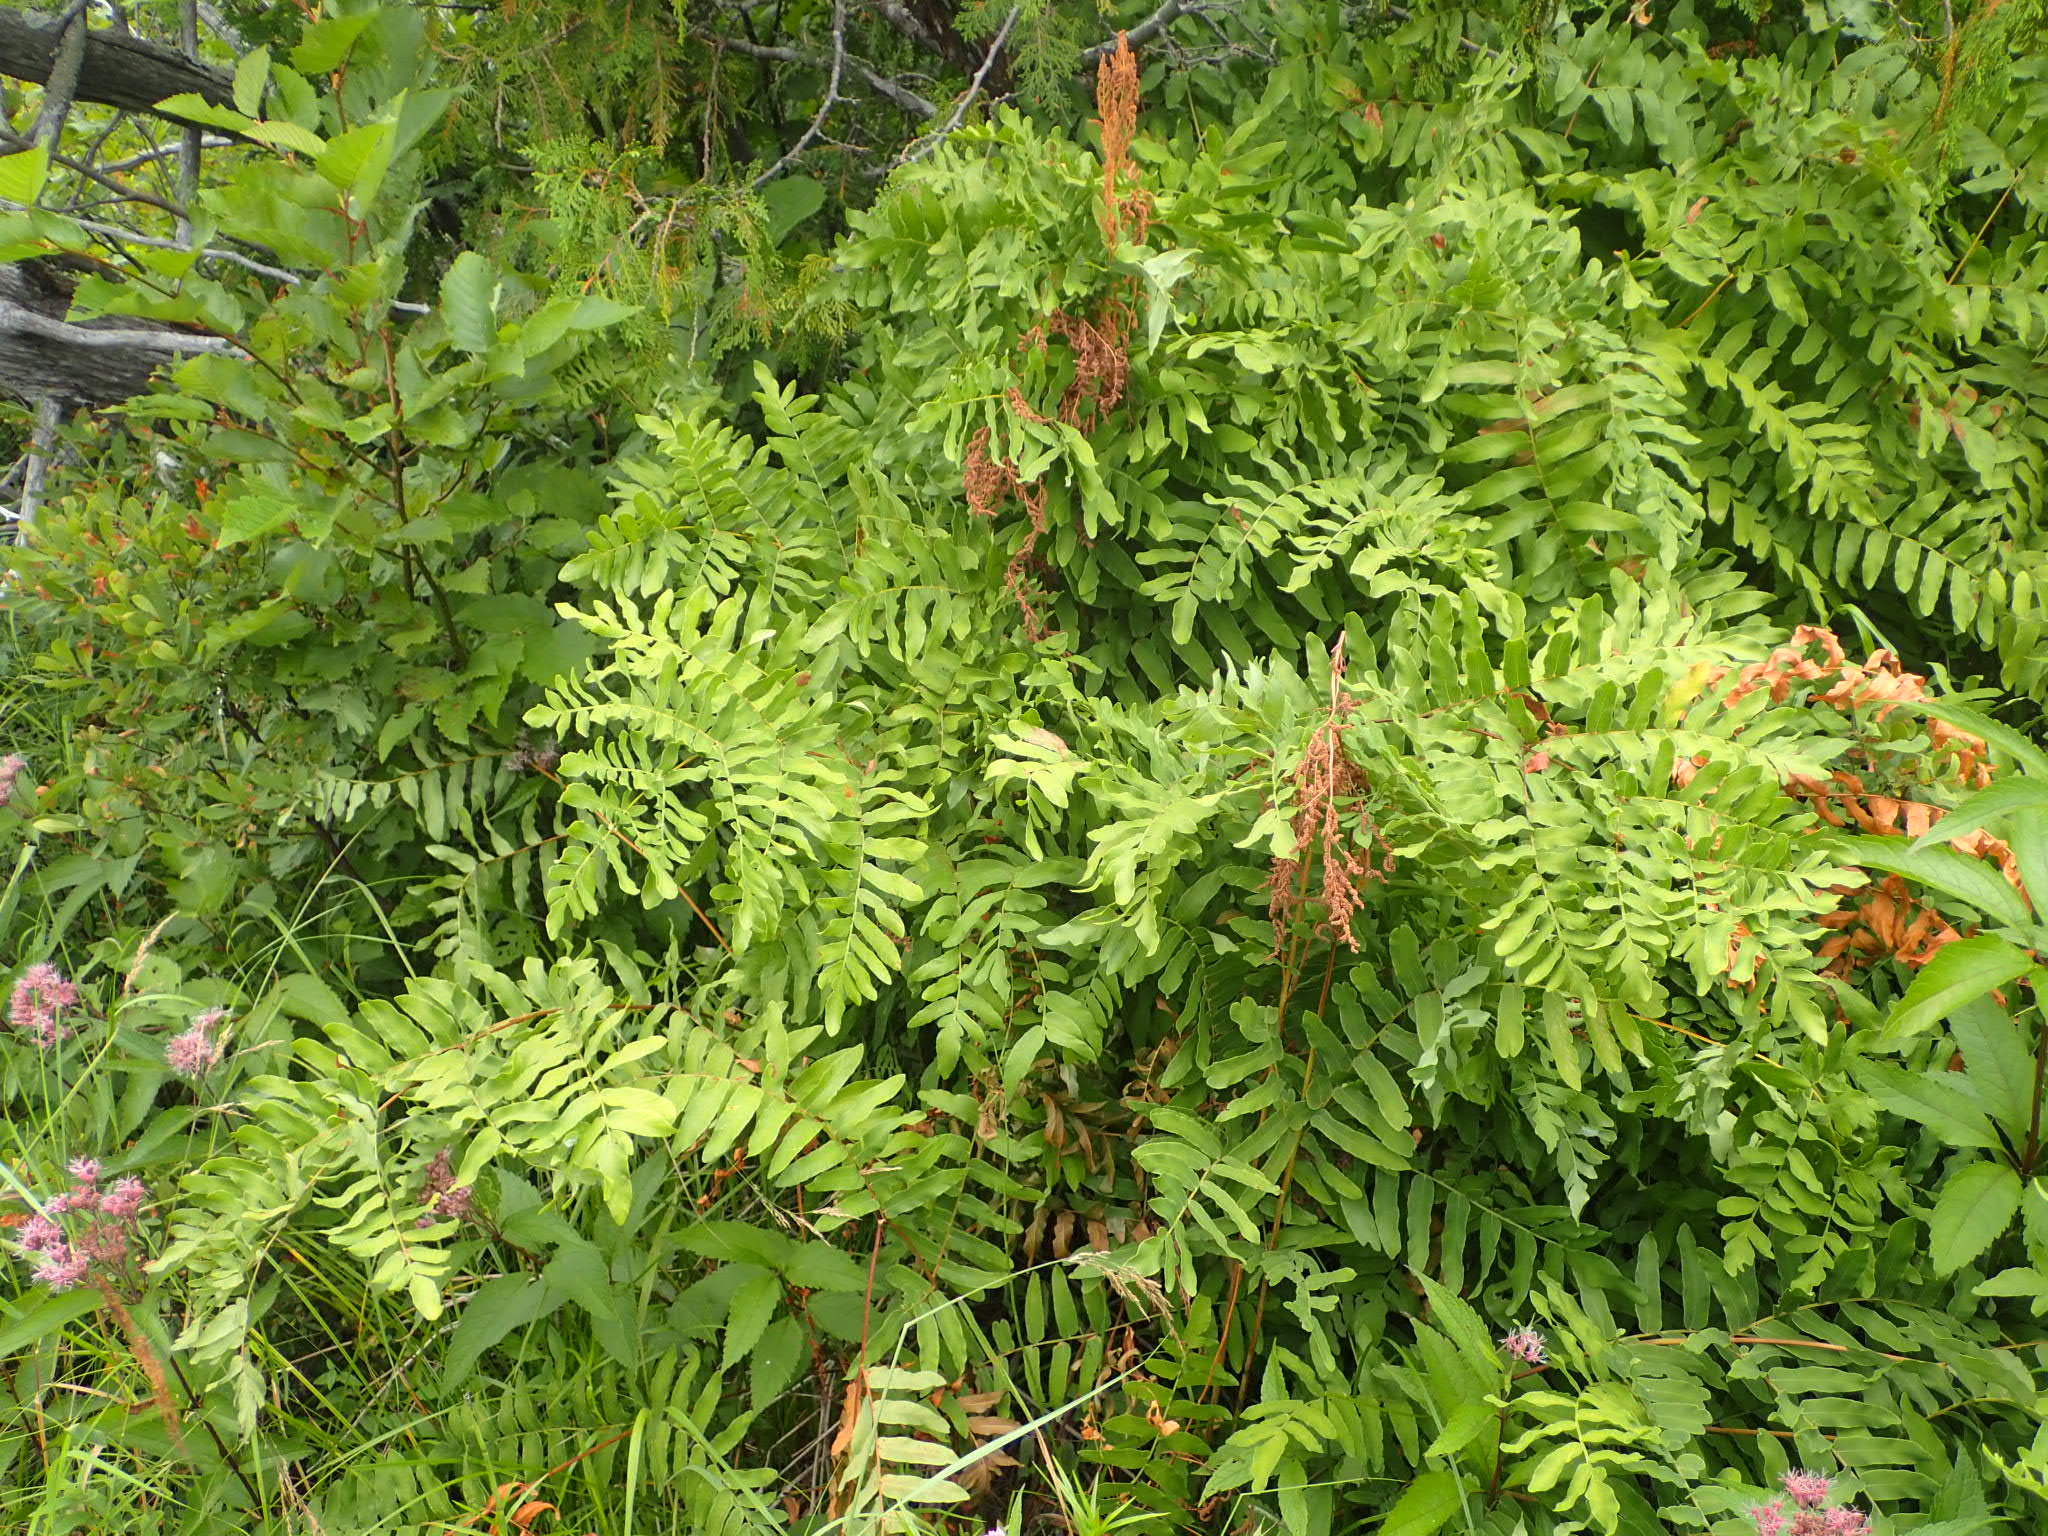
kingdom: Plantae
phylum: Tracheophyta
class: Polypodiopsida
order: Osmundales
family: Osmundaceae
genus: Osmunda
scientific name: Osmunda spectabilis
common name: American royal fern
